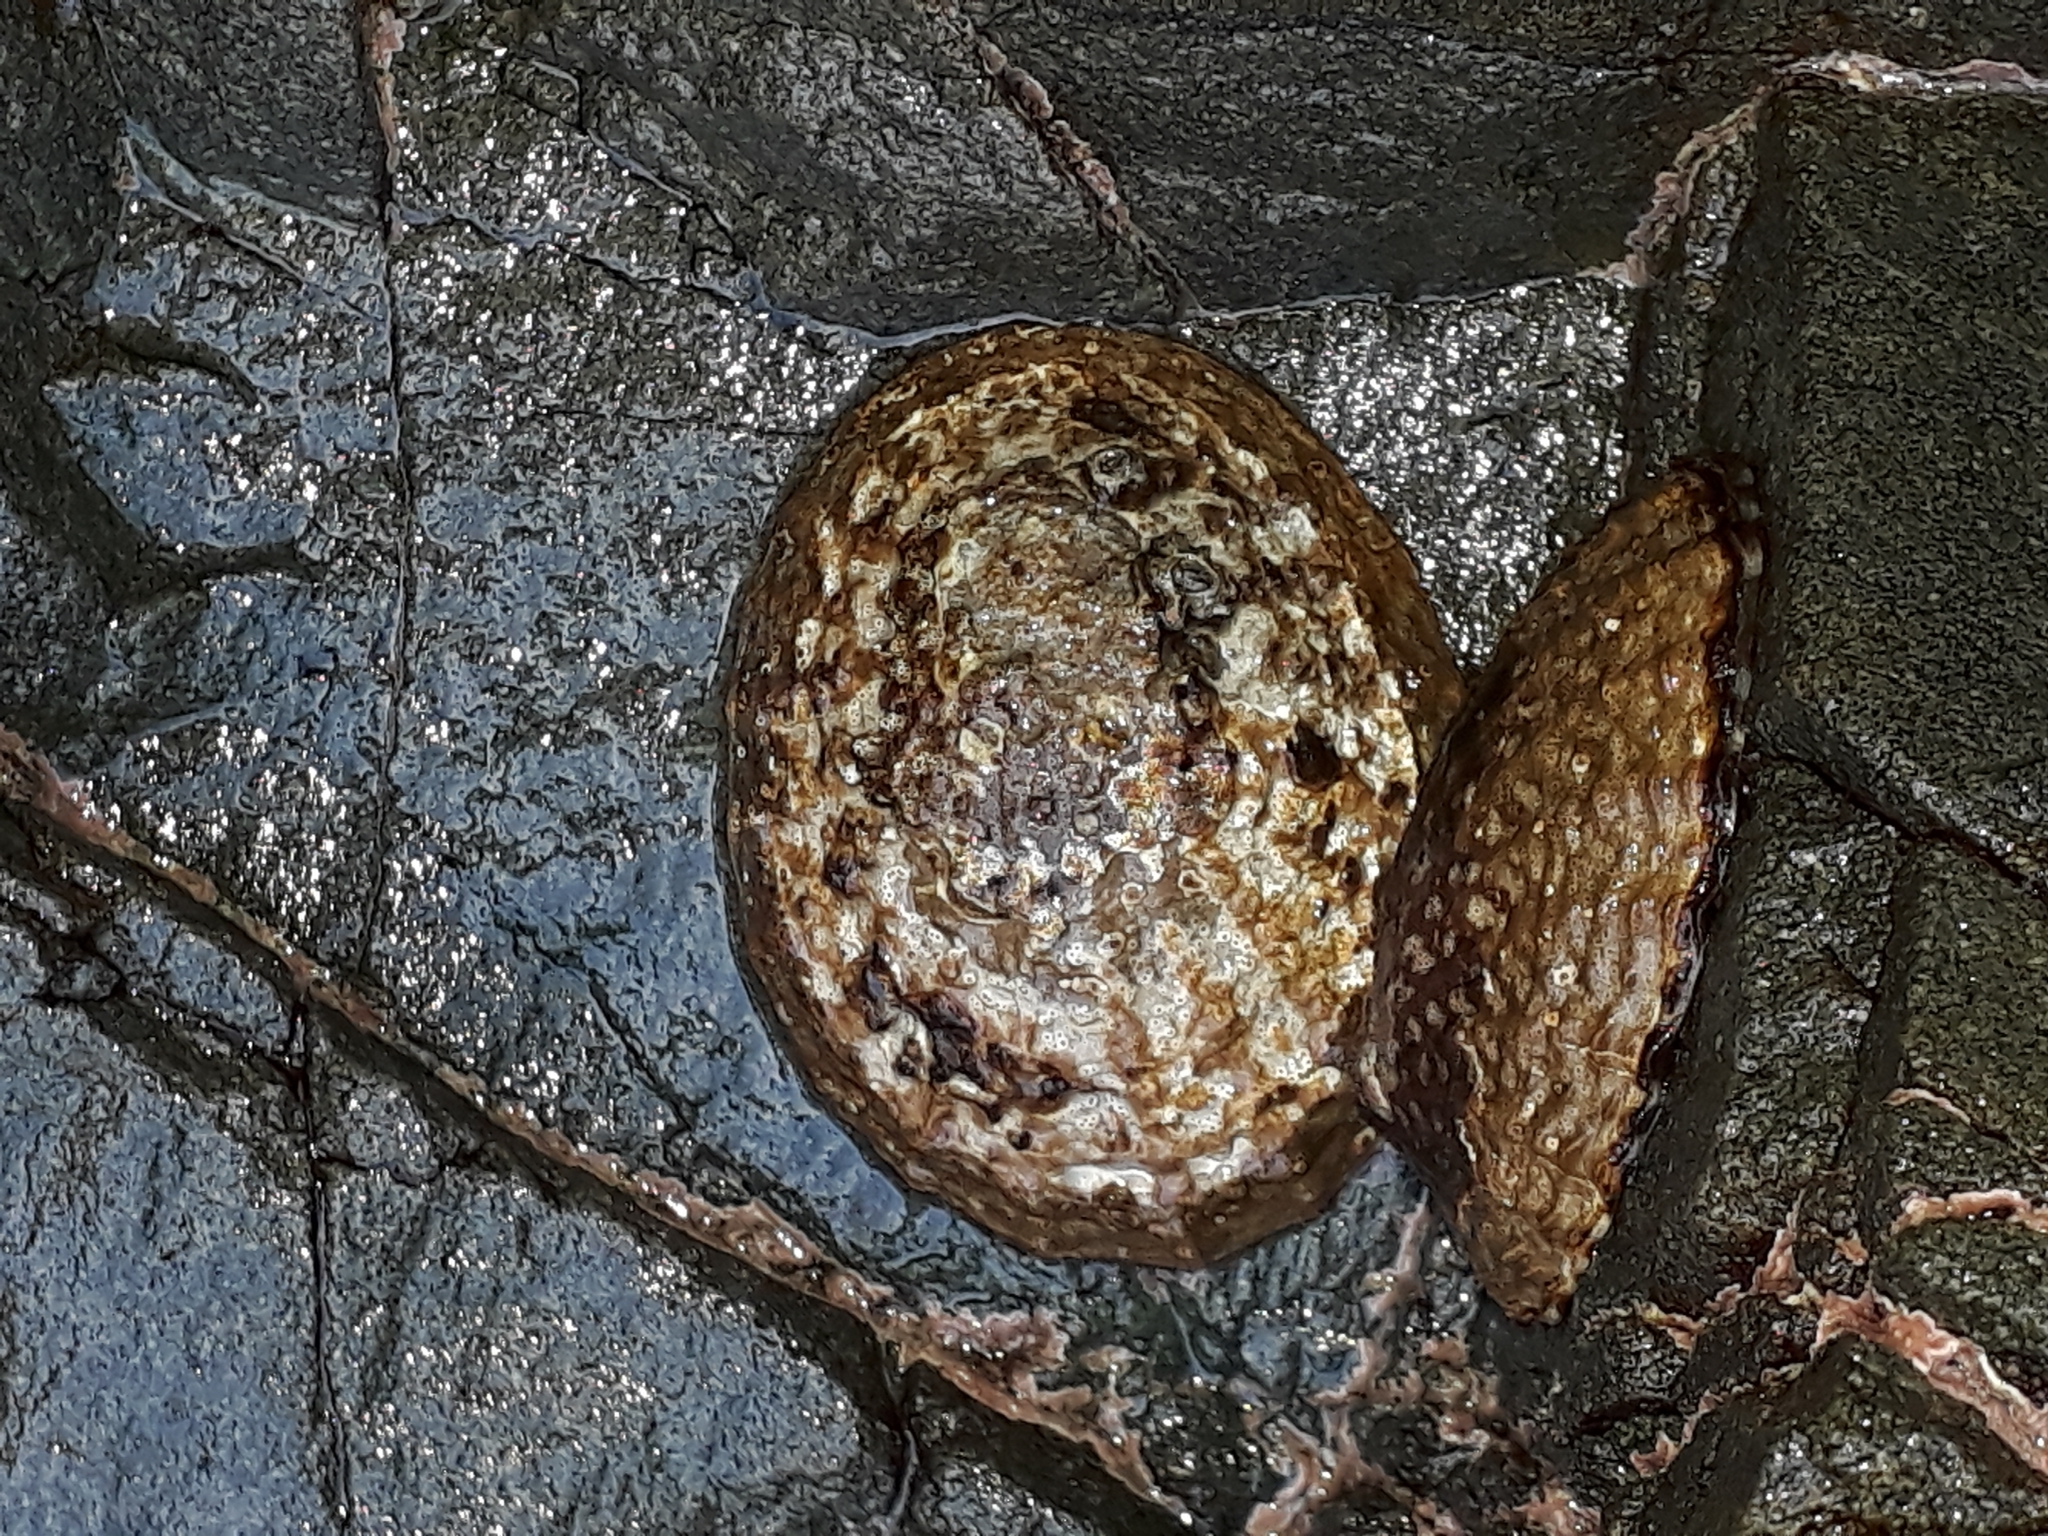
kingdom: Animalia
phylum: Mollusca
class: Gastropoda
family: Nacellidae
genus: Cellana
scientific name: Cellana denticulata
